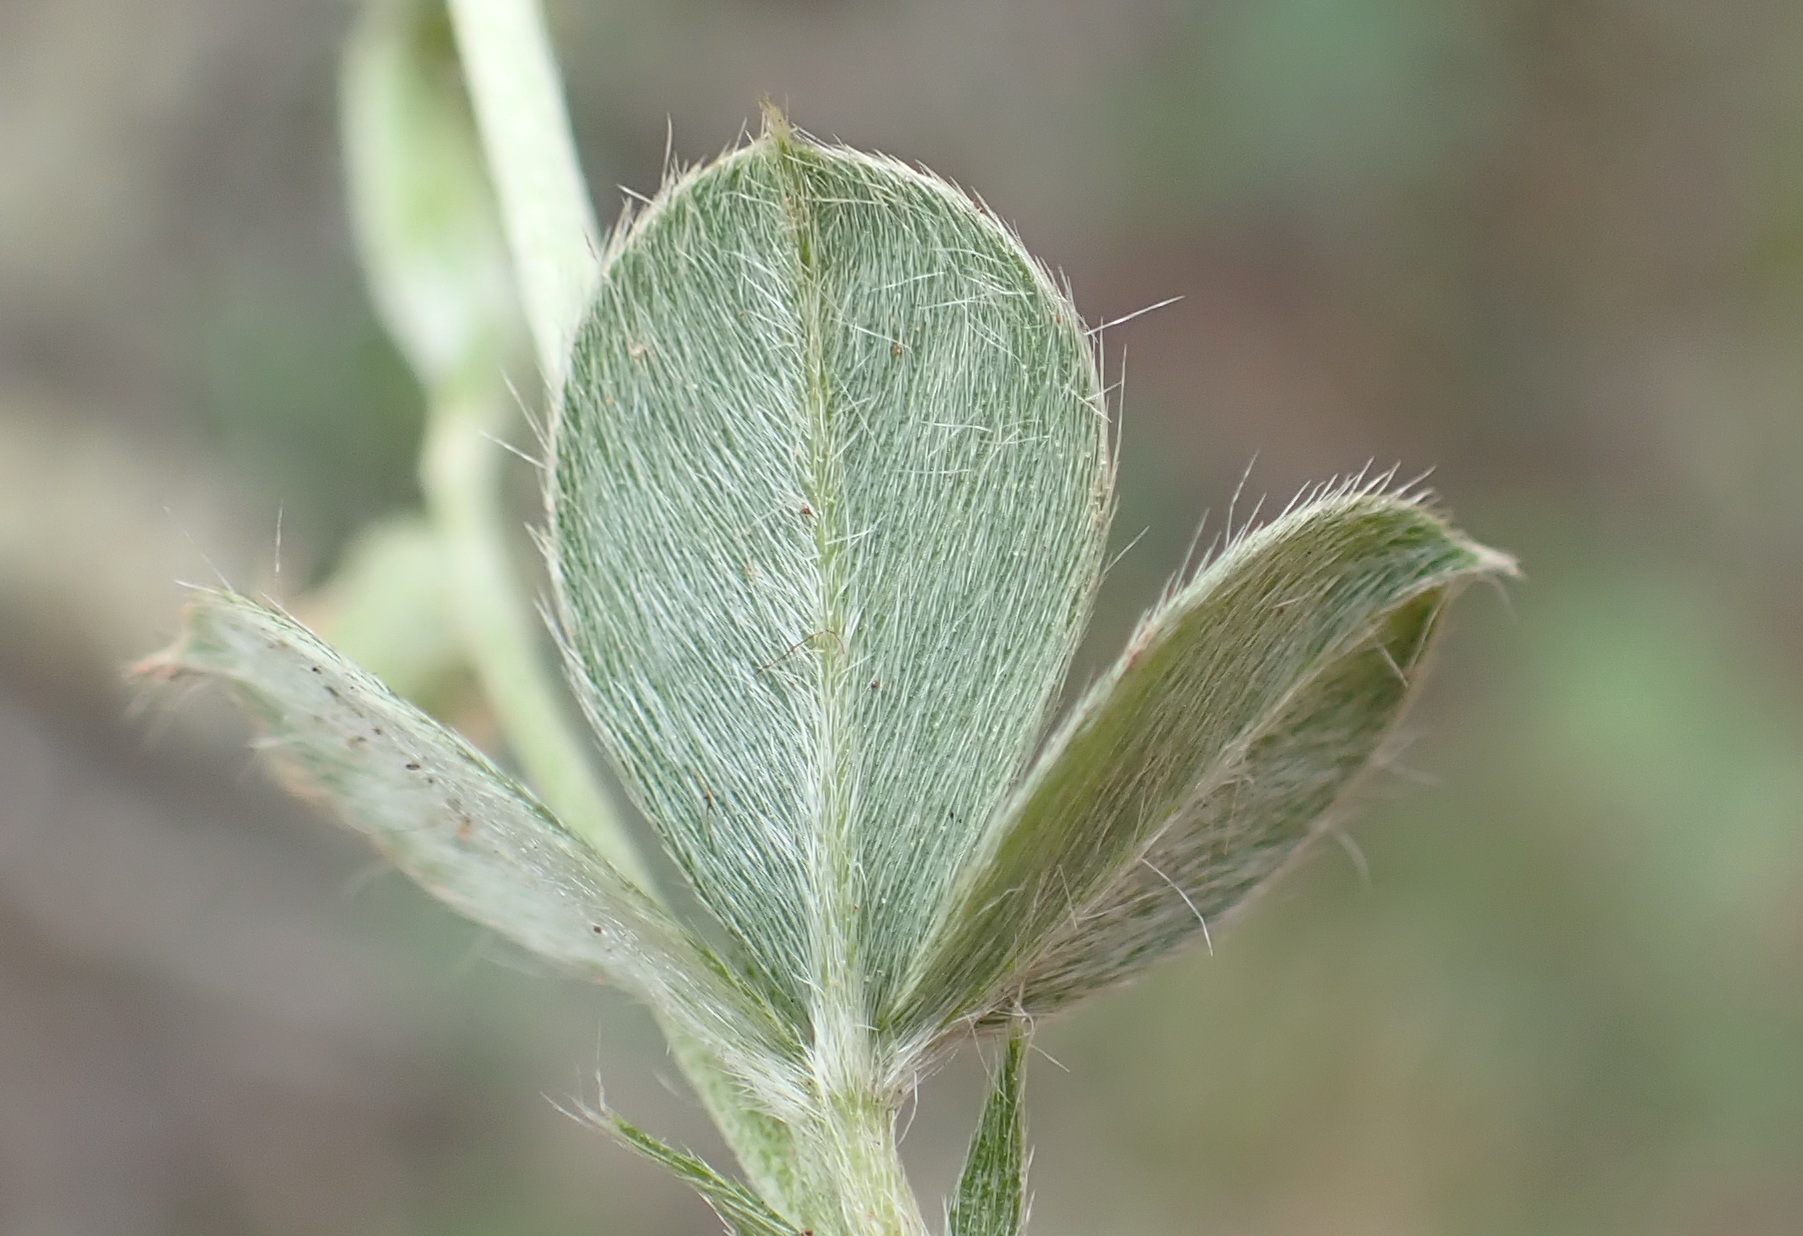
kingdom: Plantae
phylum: Tracheophyta
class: Magnoliopsida
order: Fabales
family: Fabaceae
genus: Argyrolobium
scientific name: Argyrolobium tomentosum
